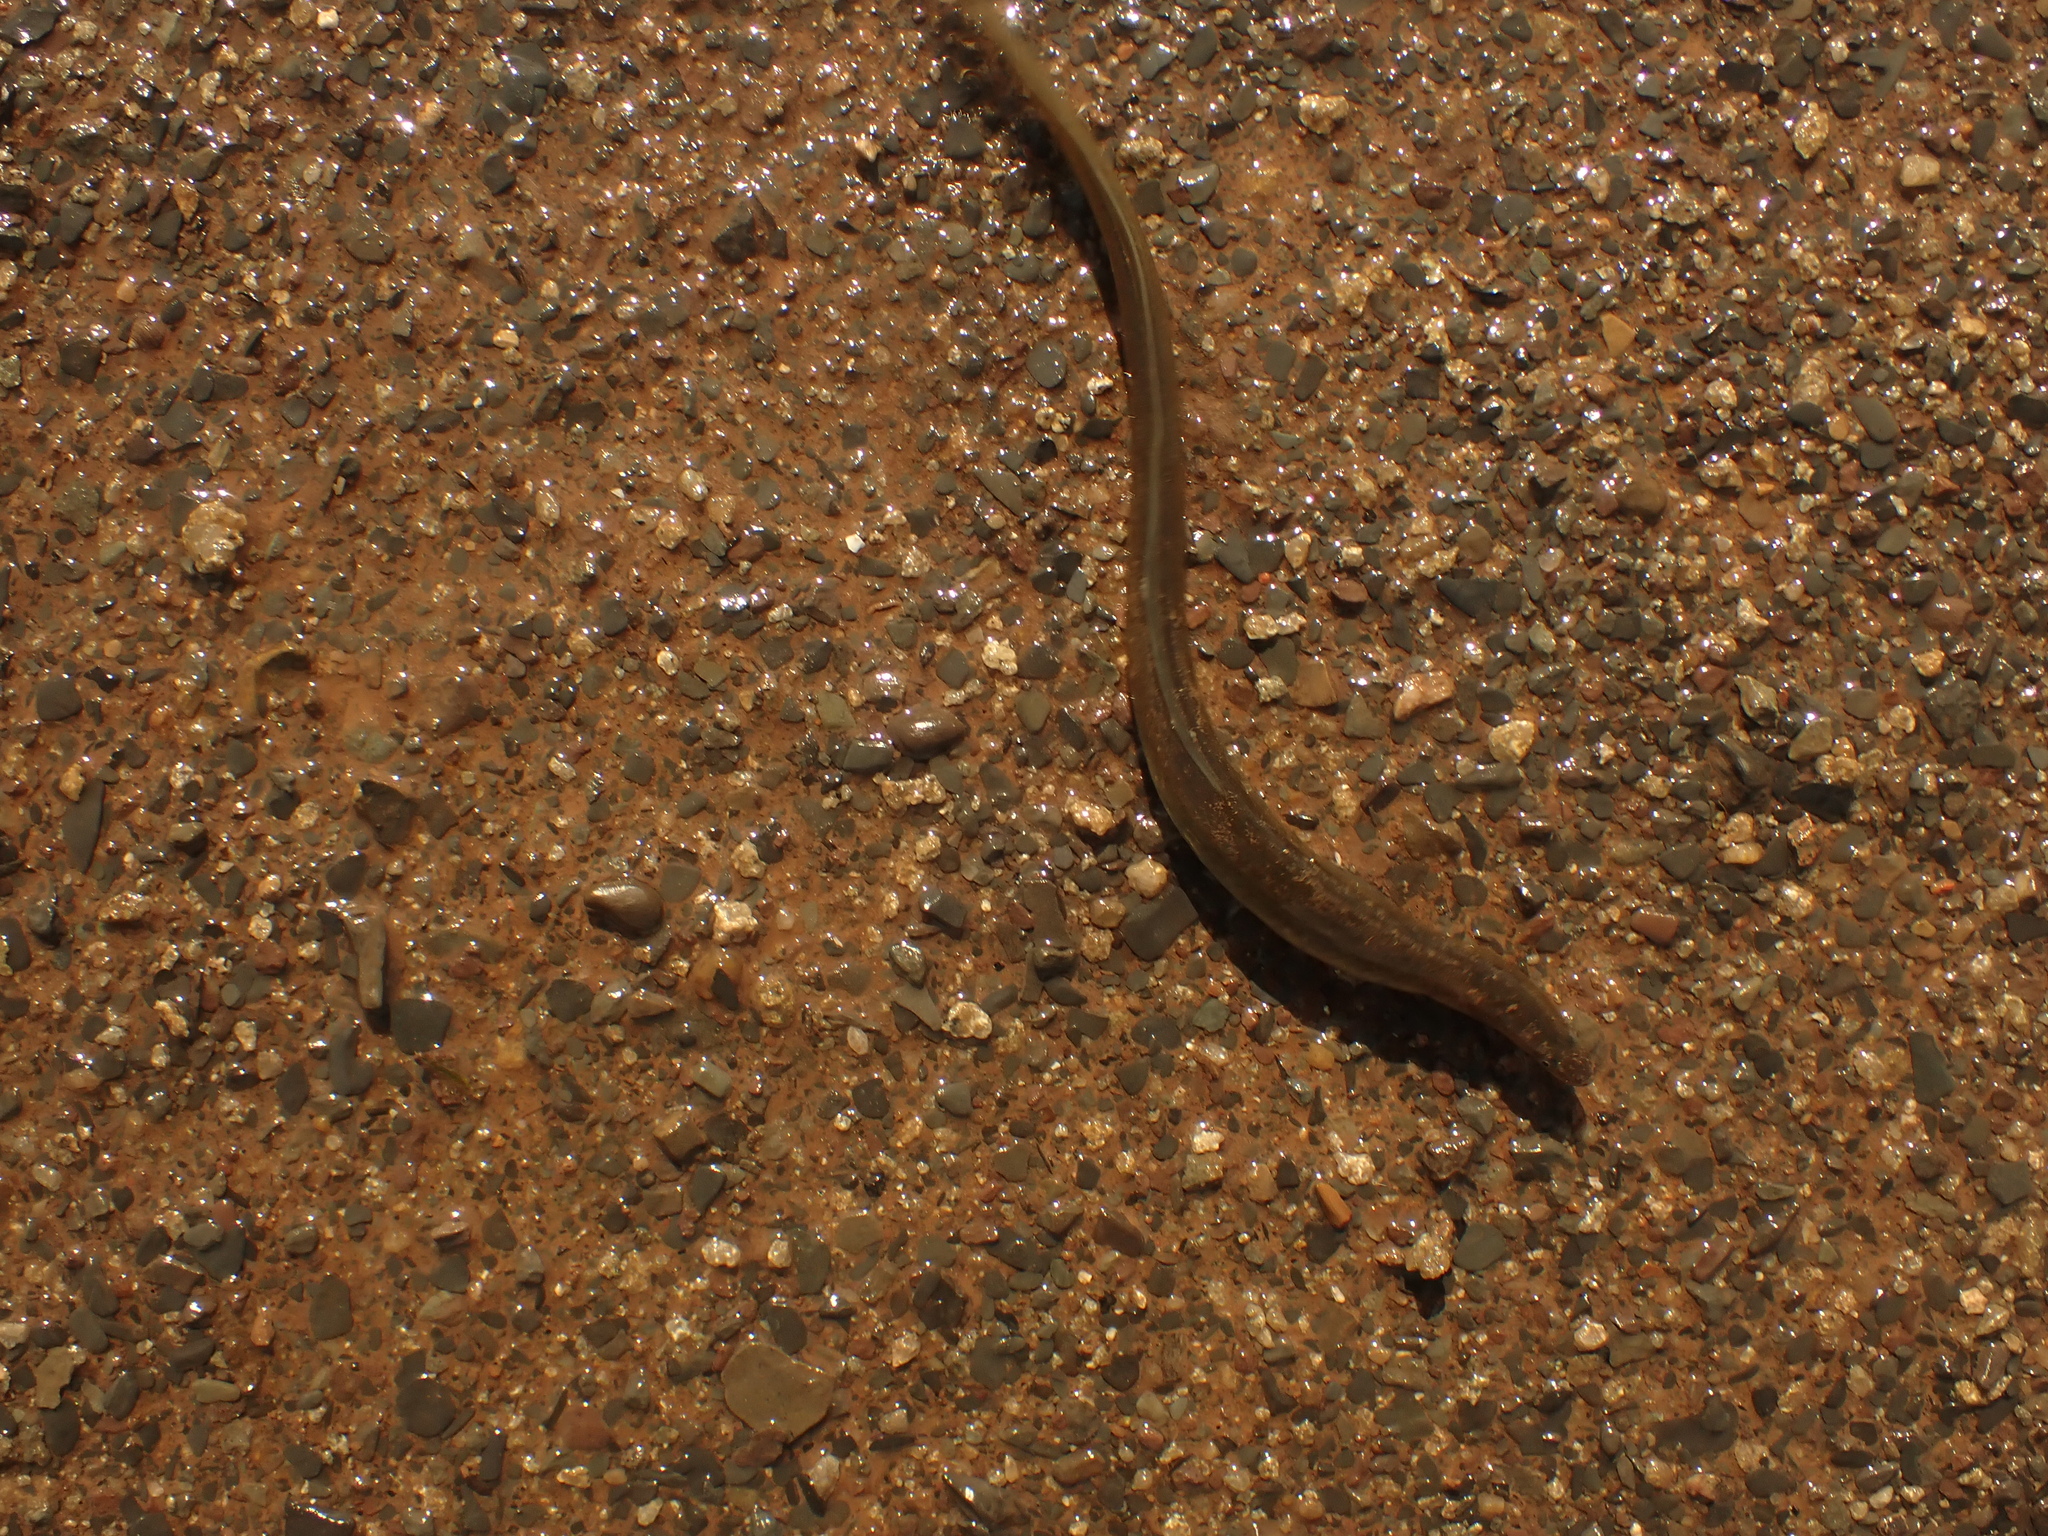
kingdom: Animalia
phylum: Chordata
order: Anguilliformes
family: Anguillidae
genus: Anguilla
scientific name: Anguilla rostrata
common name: American eel
